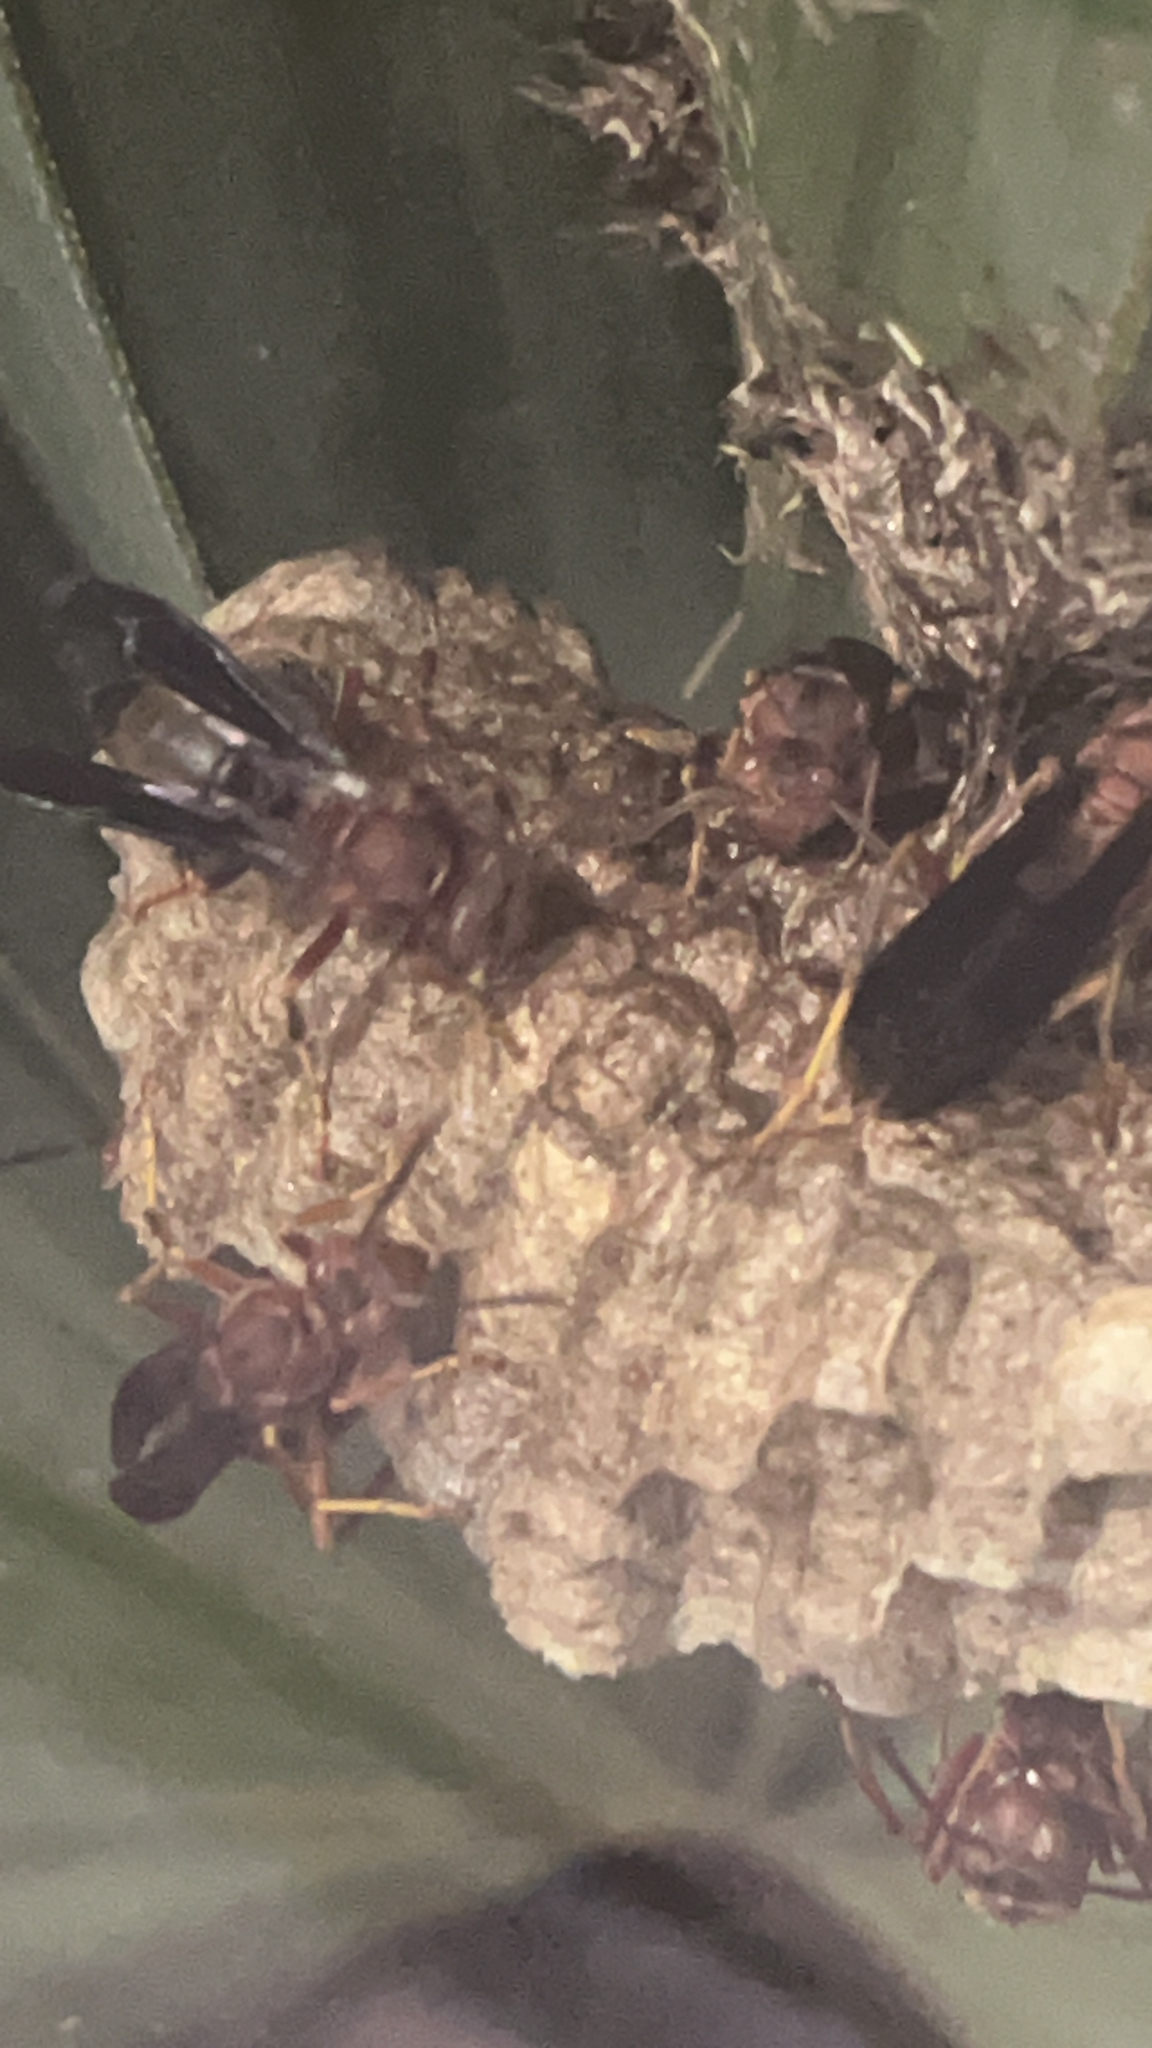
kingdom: Animalia
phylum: Arthropoda
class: Insecta
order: Hymenoptera
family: Eumenidae
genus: Polistes
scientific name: Polistes metricus
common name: Metric paper wasp
